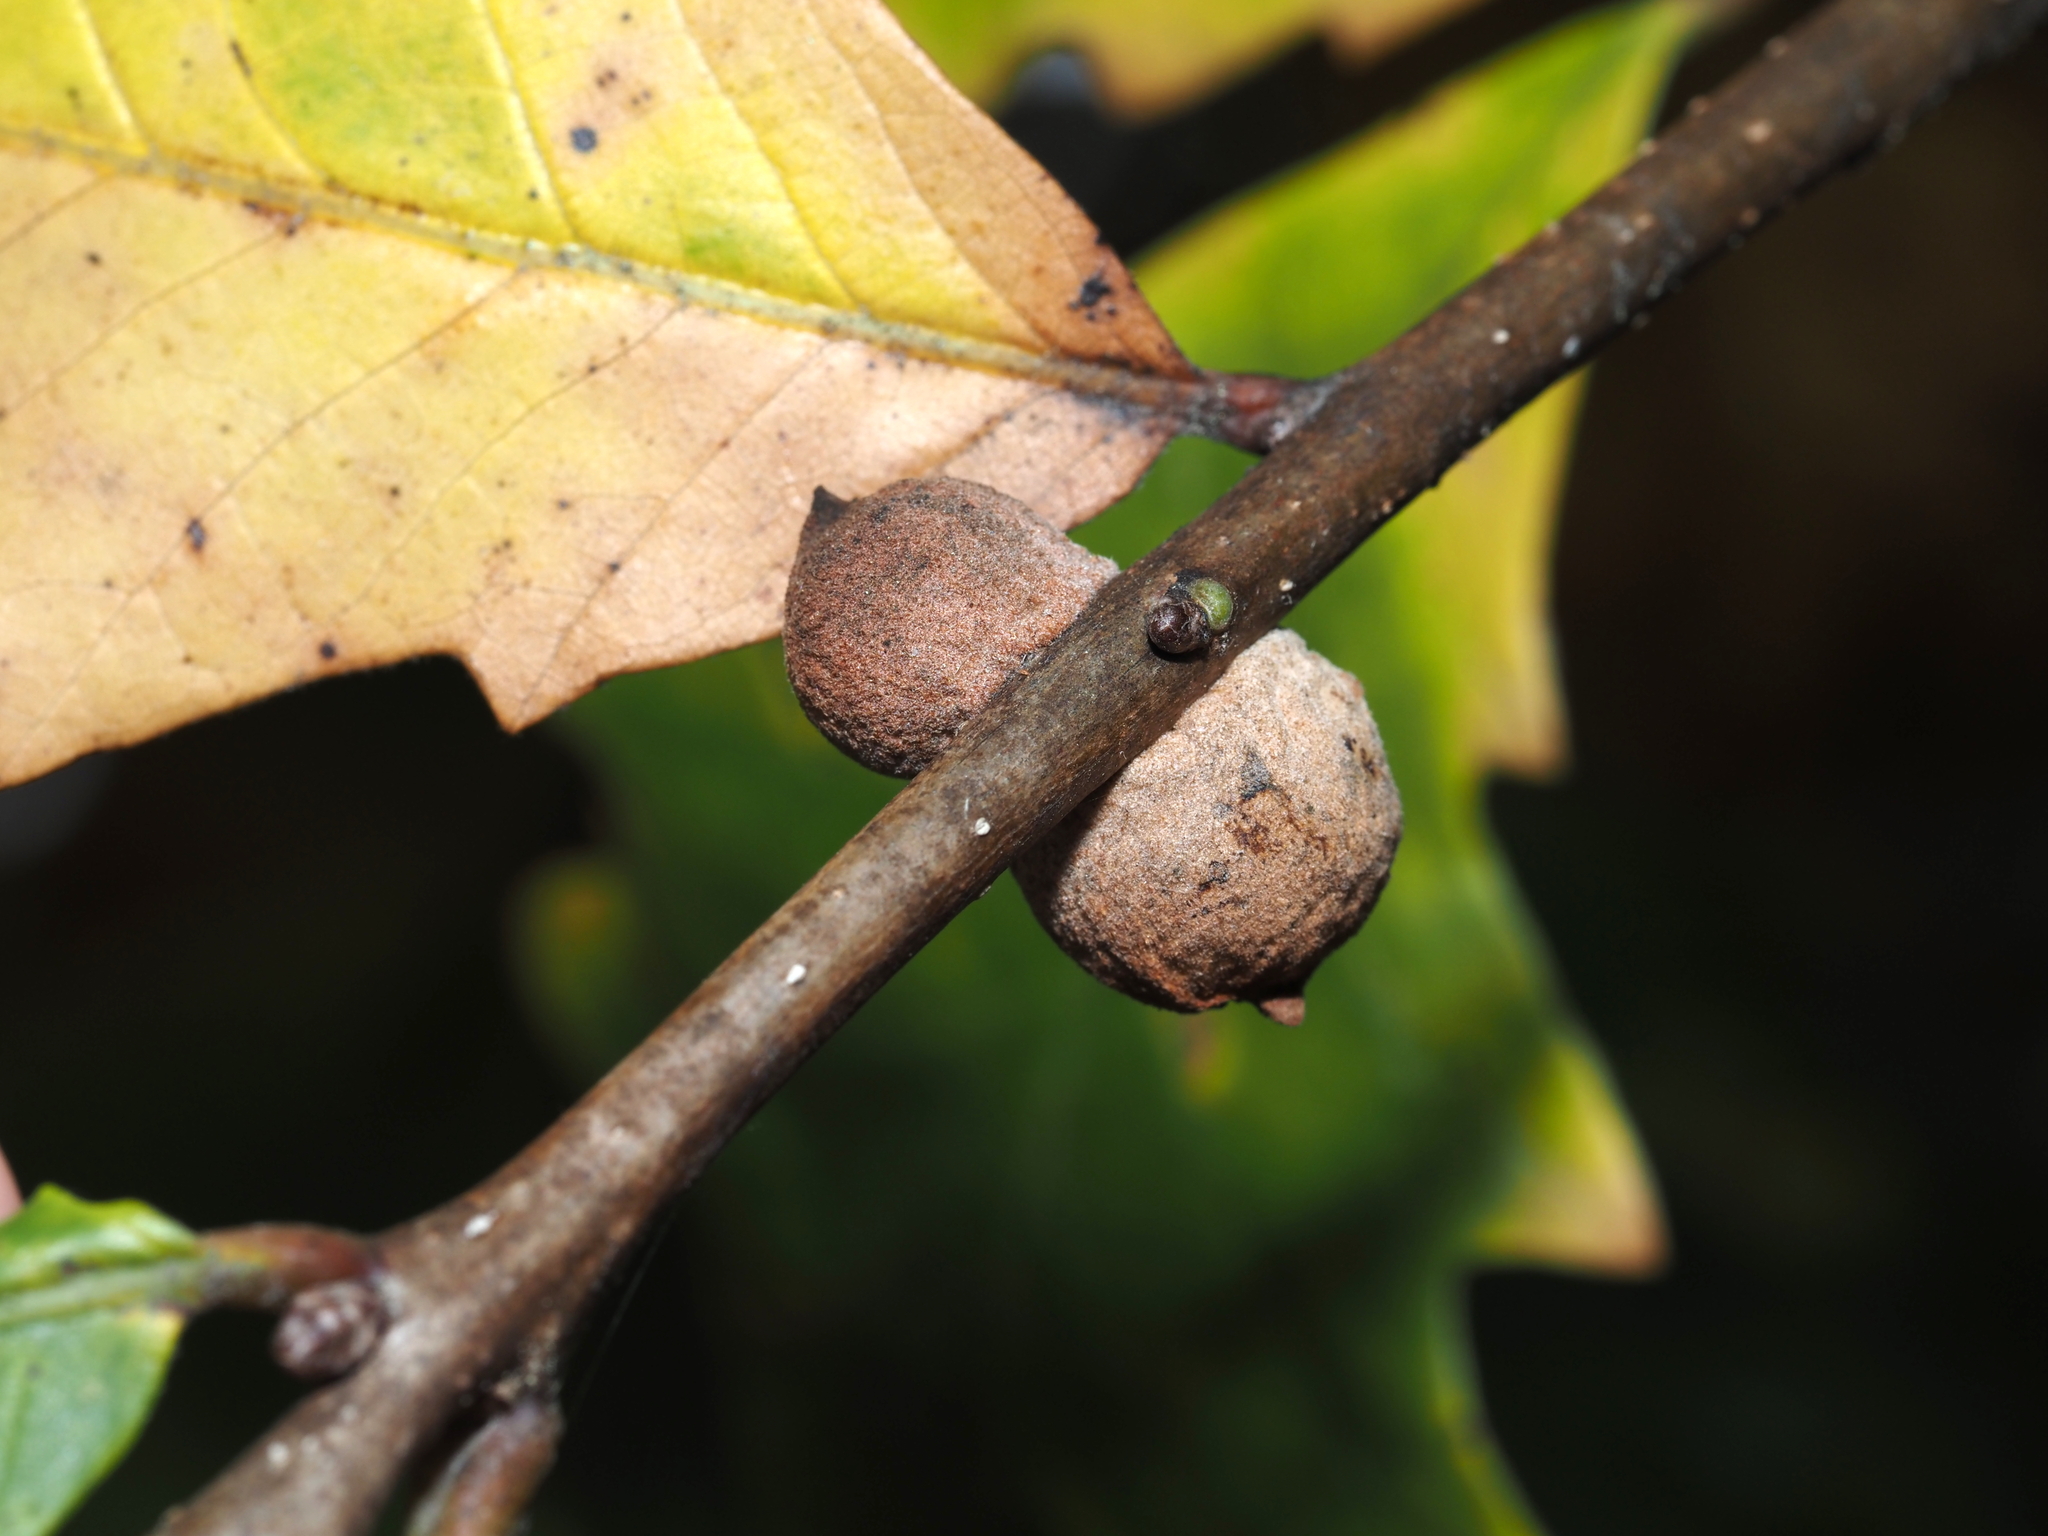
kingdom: Animalia
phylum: Arthropoda
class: Insecta
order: Hymenoptera
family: Cynipidae
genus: Disholcaspis
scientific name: Disholcaspis
